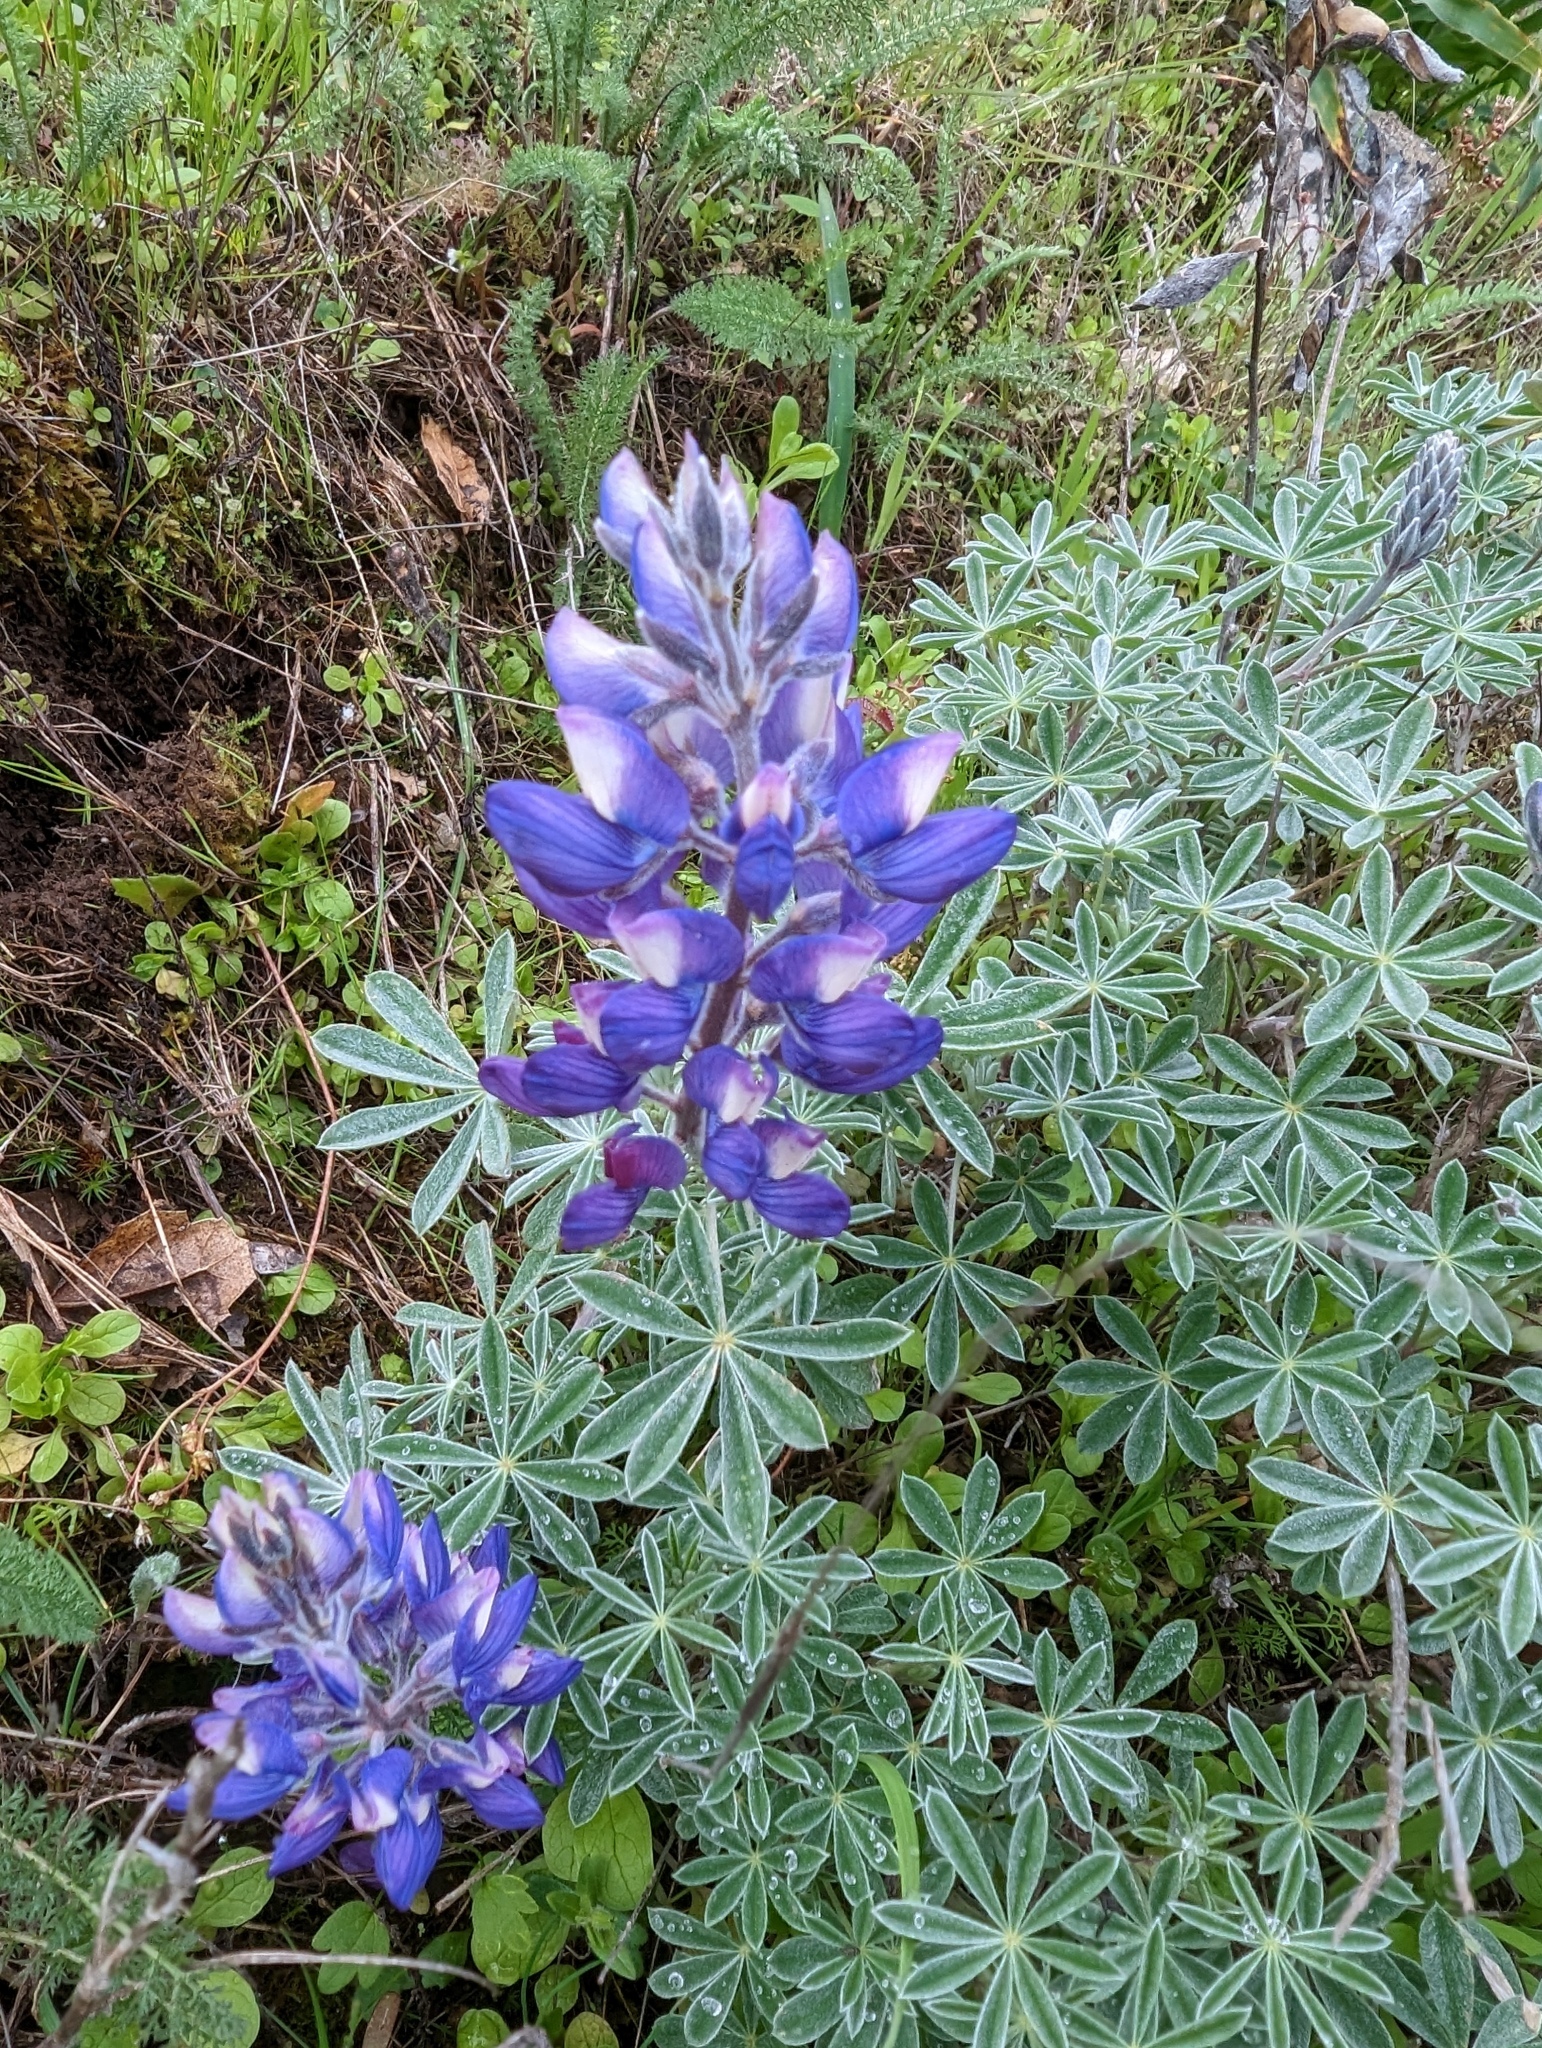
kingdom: Plantae
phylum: Tracheophyta
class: Magnoliopsida
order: Fabales
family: Fabaceae
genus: Lupinus
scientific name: Lupinus albifrons
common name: Foothill lupine
